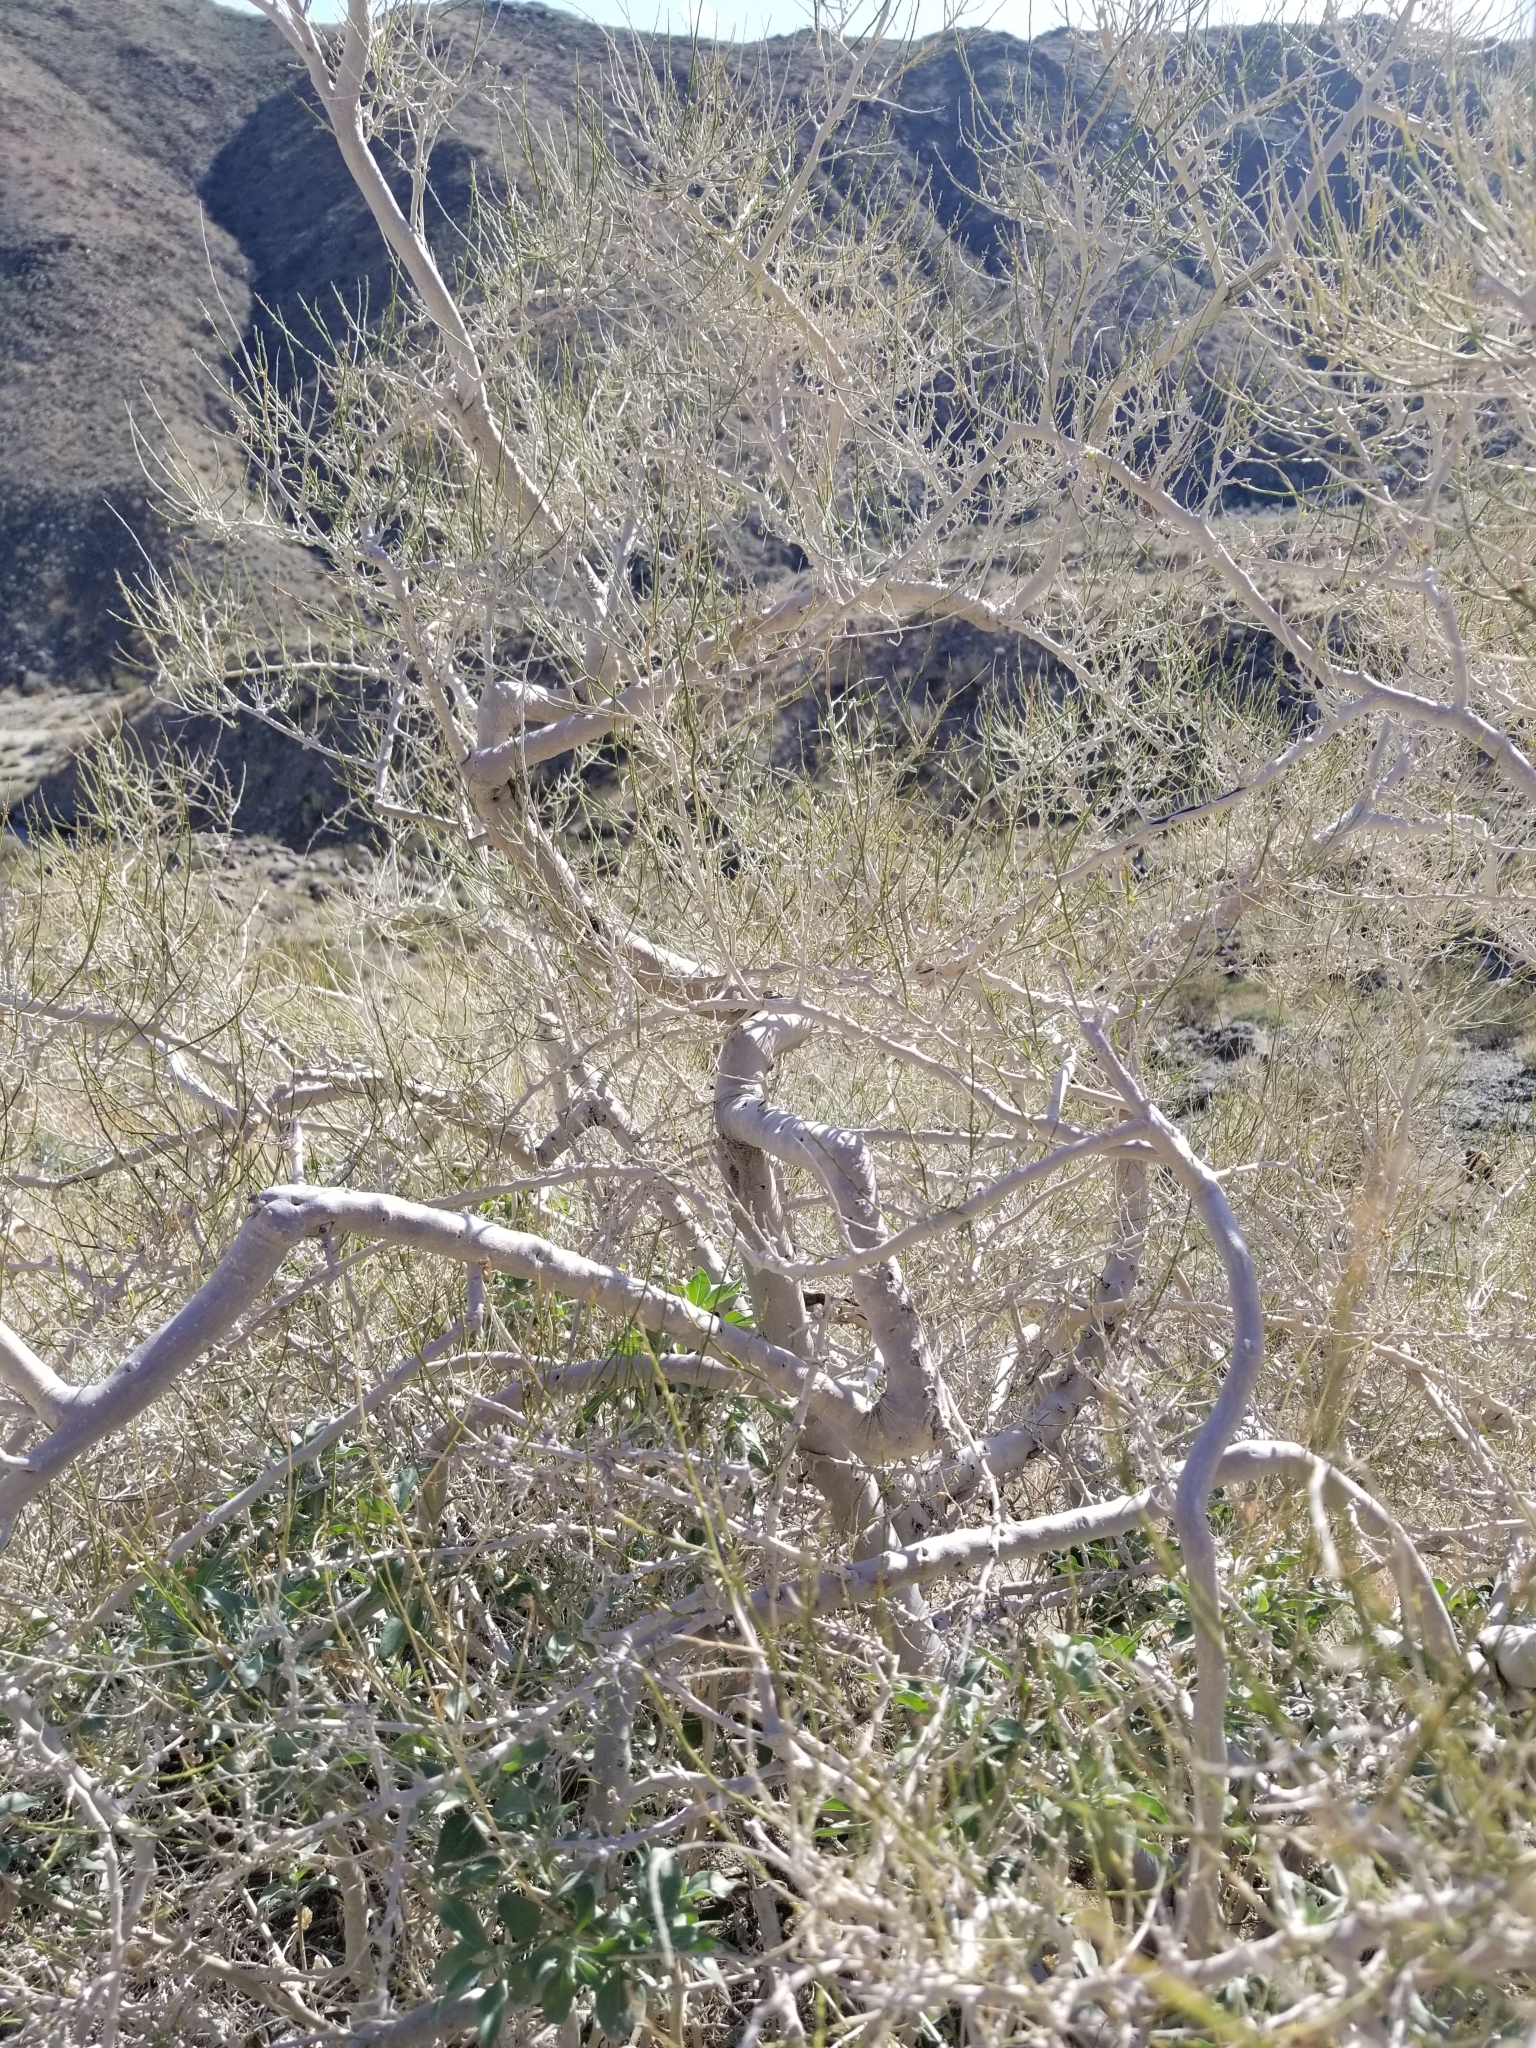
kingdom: Plantae
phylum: Tracheophyta
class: Magnoliopsida
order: Fabales
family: Fabaceae
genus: Psorothamnus
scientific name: Psorothamnus schottii
